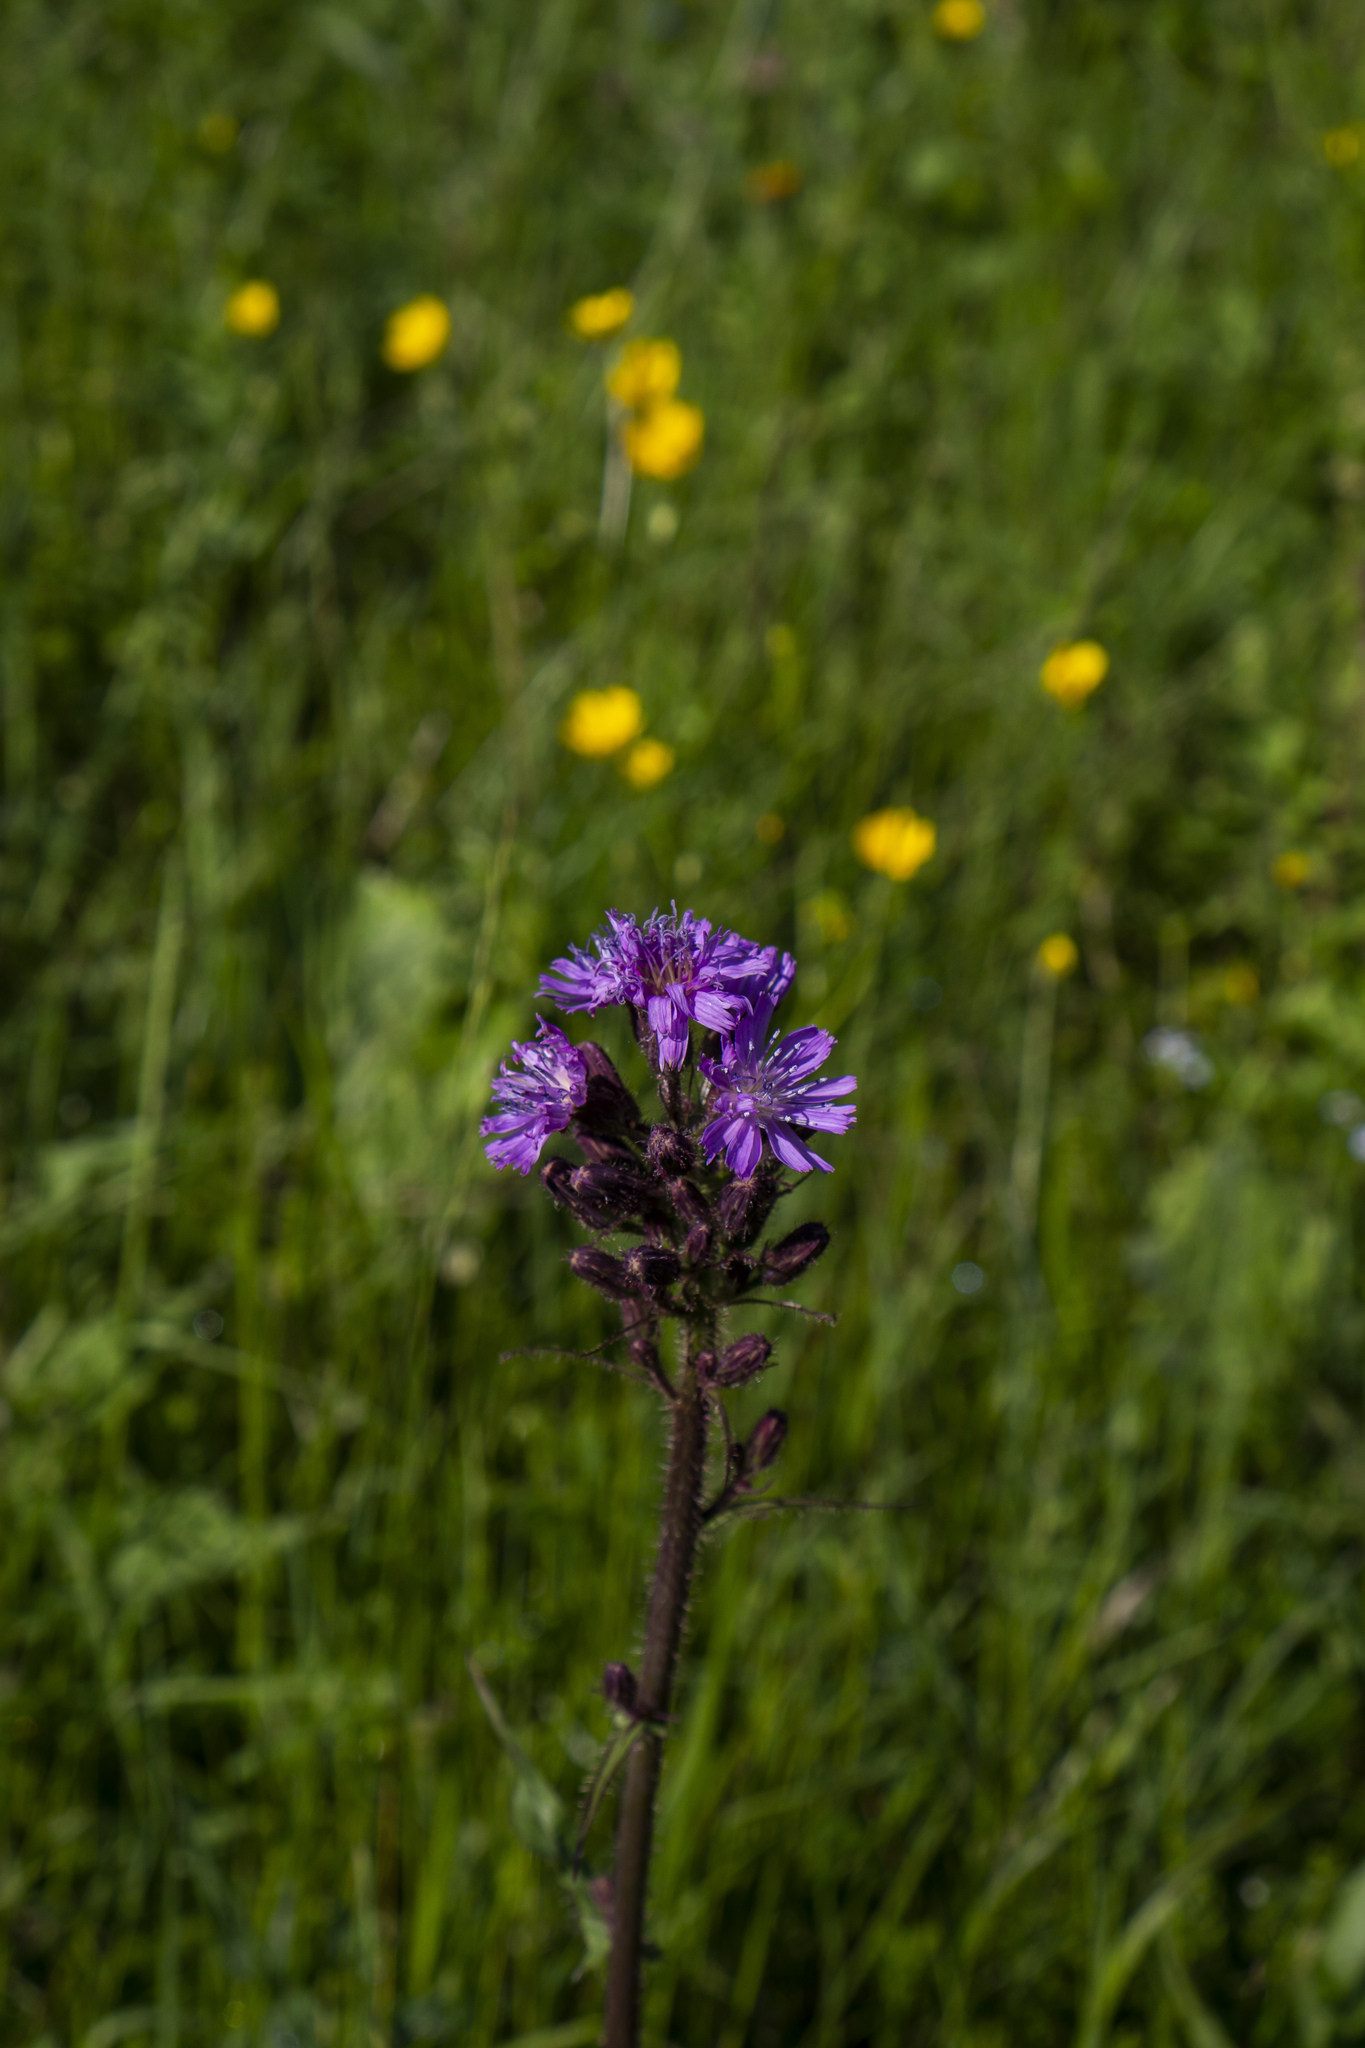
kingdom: Plantae
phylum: Tracheophyta
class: Magnoliopsida
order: Asterales
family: Asteraceae
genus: Cicerbita
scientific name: Cicerbita alpina
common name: Alpine blue-sow-thistle
